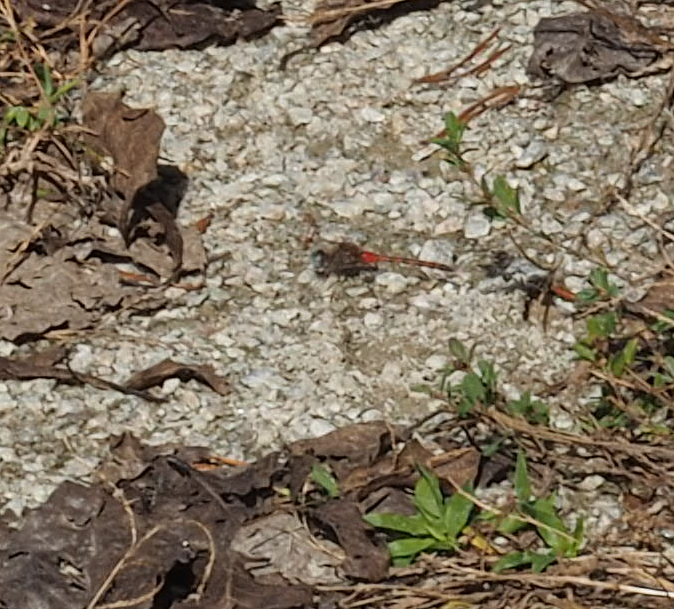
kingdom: Animalia
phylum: Arthropoda
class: Insecta
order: Odonata
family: Libellulidae
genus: Sympetrum
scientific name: Sympetrum ambiguum
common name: Blue-faced meadowhawk
